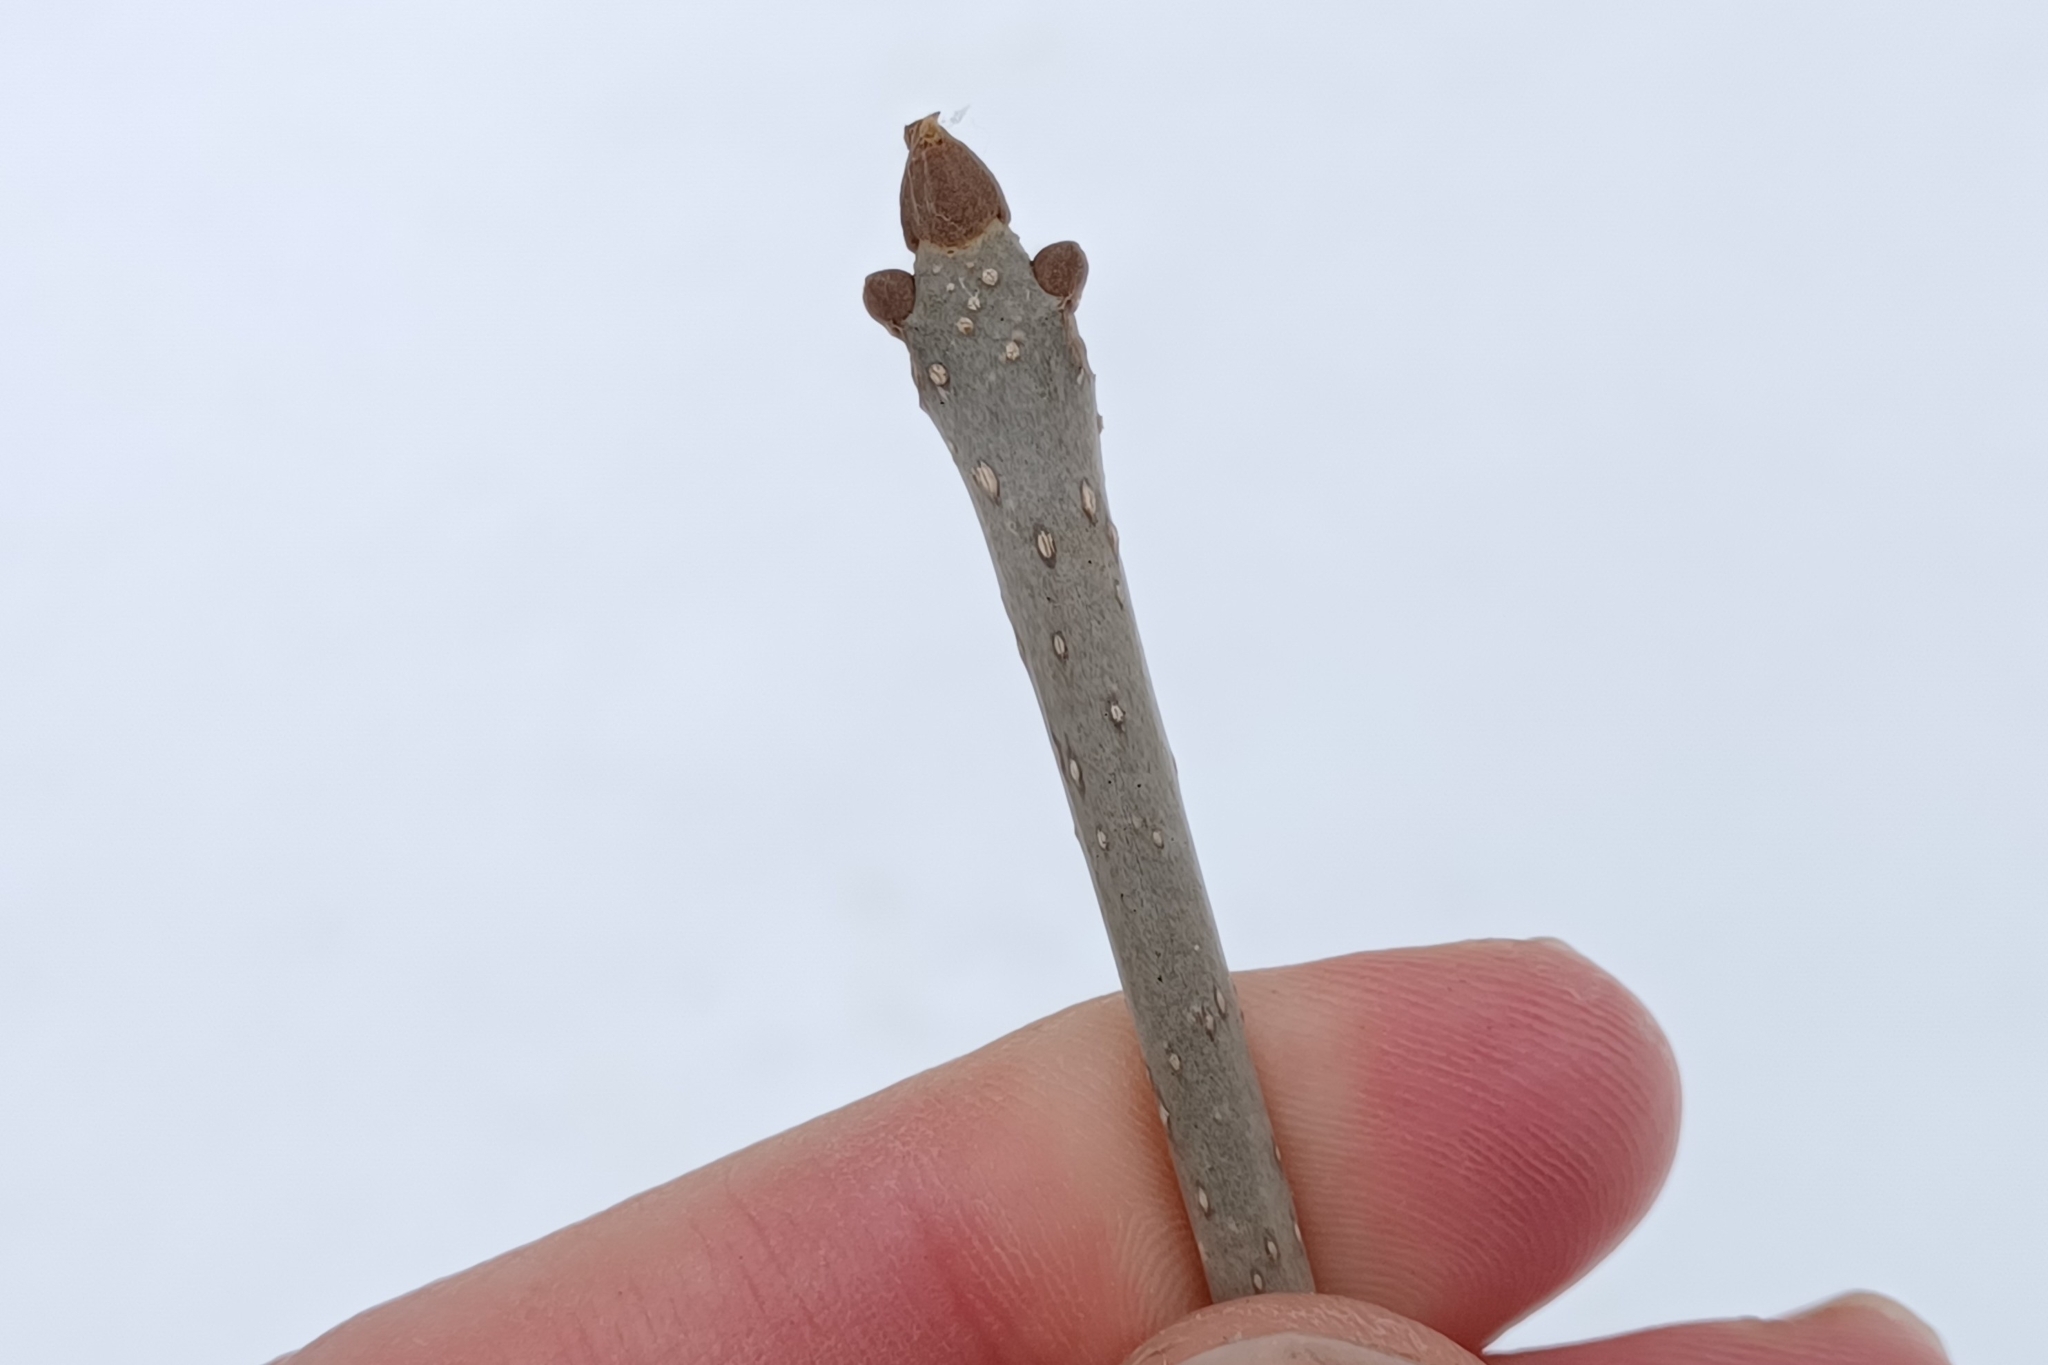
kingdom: Plantae
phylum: Tracheophyta
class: Magnoliopsida
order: Lamiales
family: Oleaceae
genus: Fraxinus
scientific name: Fraxinus nigra
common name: Black ash
